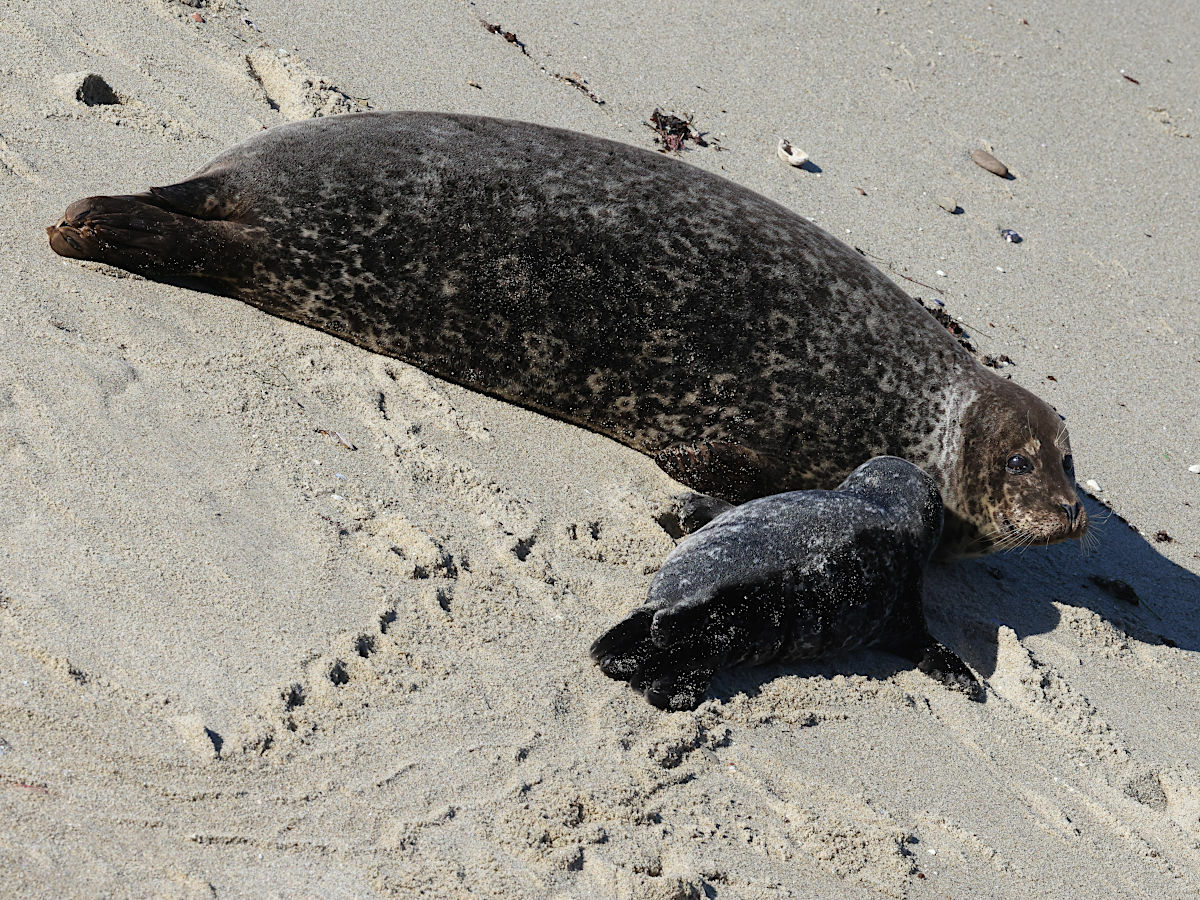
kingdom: Animalia
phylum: Chordata
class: Mammalia
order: Carnivora
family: Phocidae
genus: Phoca
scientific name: Phoca vitulina
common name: Harbor seal
